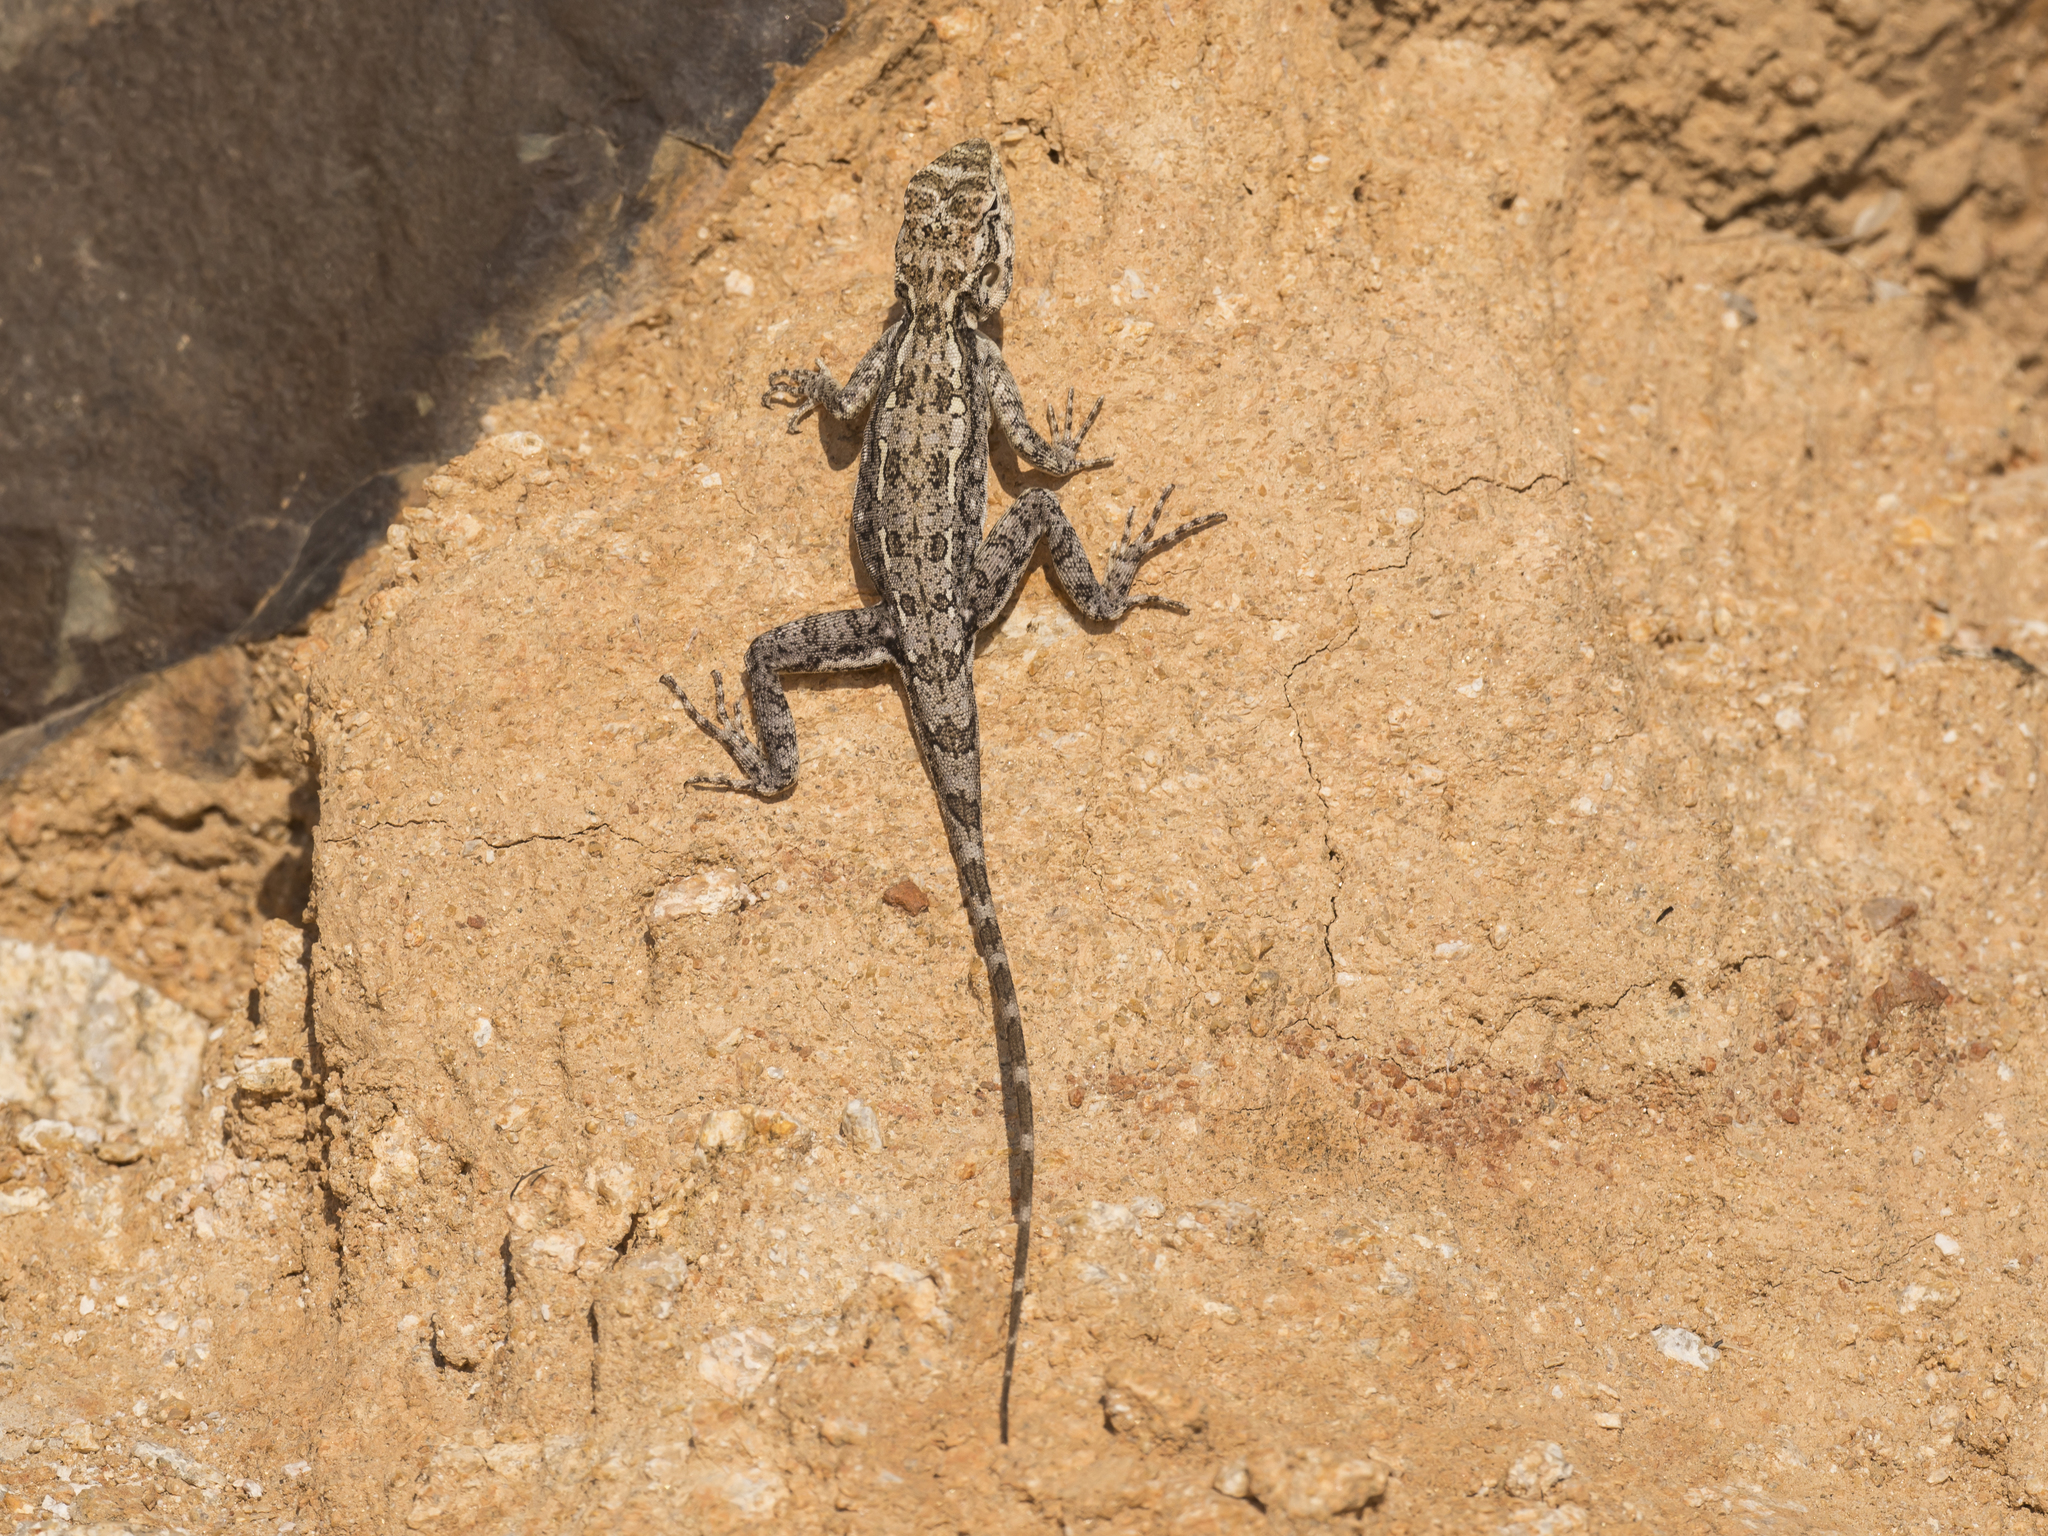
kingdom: Animalia
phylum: Chordata
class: Squamata
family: Agamidae
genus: Psammophilus
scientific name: Psammophilus dorsalis
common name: South indian rock agama
